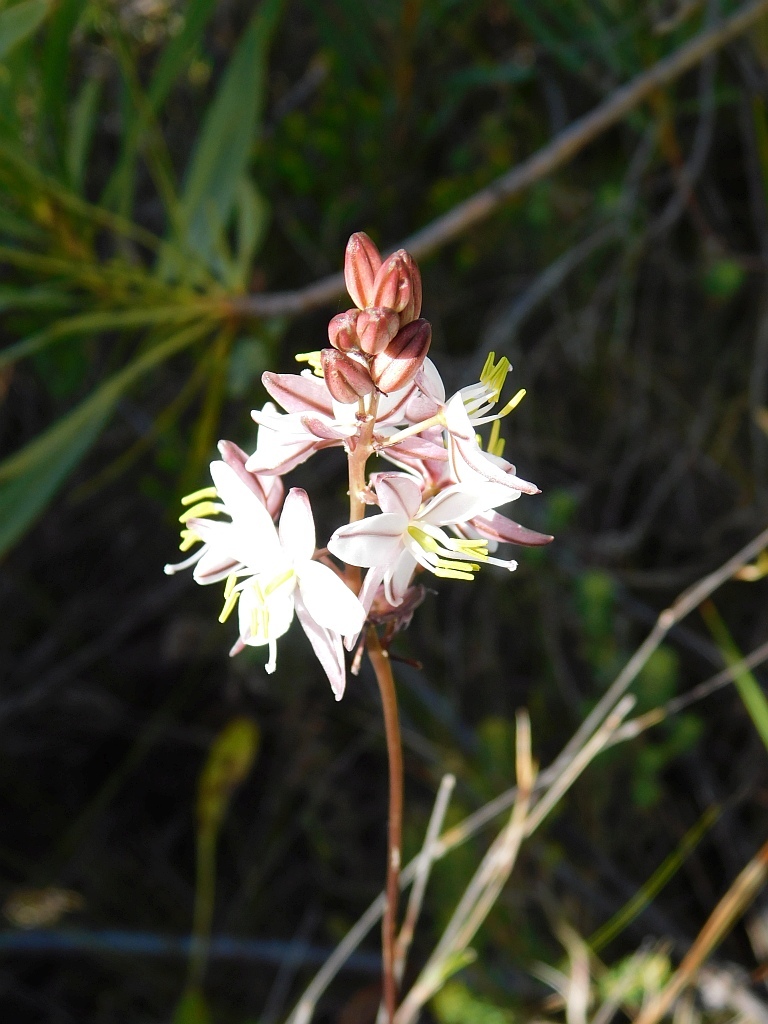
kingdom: Plantae
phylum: Tracheophyta
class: Liliopsida
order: Asparagales
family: Asparagaceae
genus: Drimia
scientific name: Drimia exuviata
